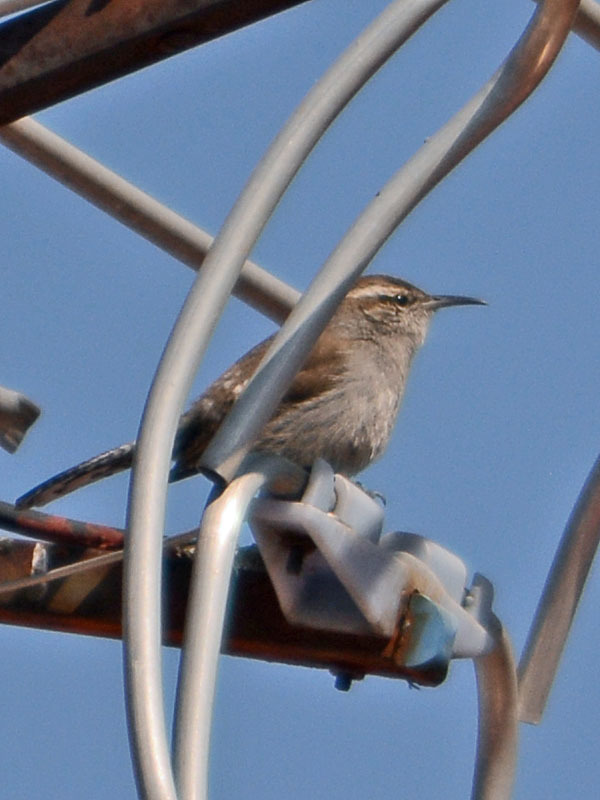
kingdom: Animalia
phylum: Chordata
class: Aves
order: Passeriformes
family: Troglodytidae
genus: Thryomanes
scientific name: Thryomanes bewickii
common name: Bewick's wren
